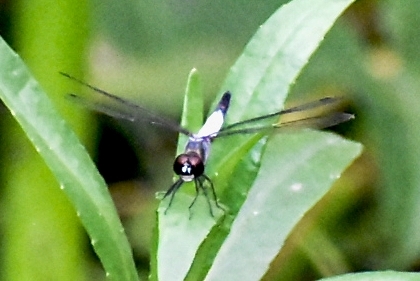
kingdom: Animalia
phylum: Arthropoda
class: Insecta
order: Odonata
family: Libellulidae
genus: Brachydiplax
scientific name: Brachydiplax sobrina
